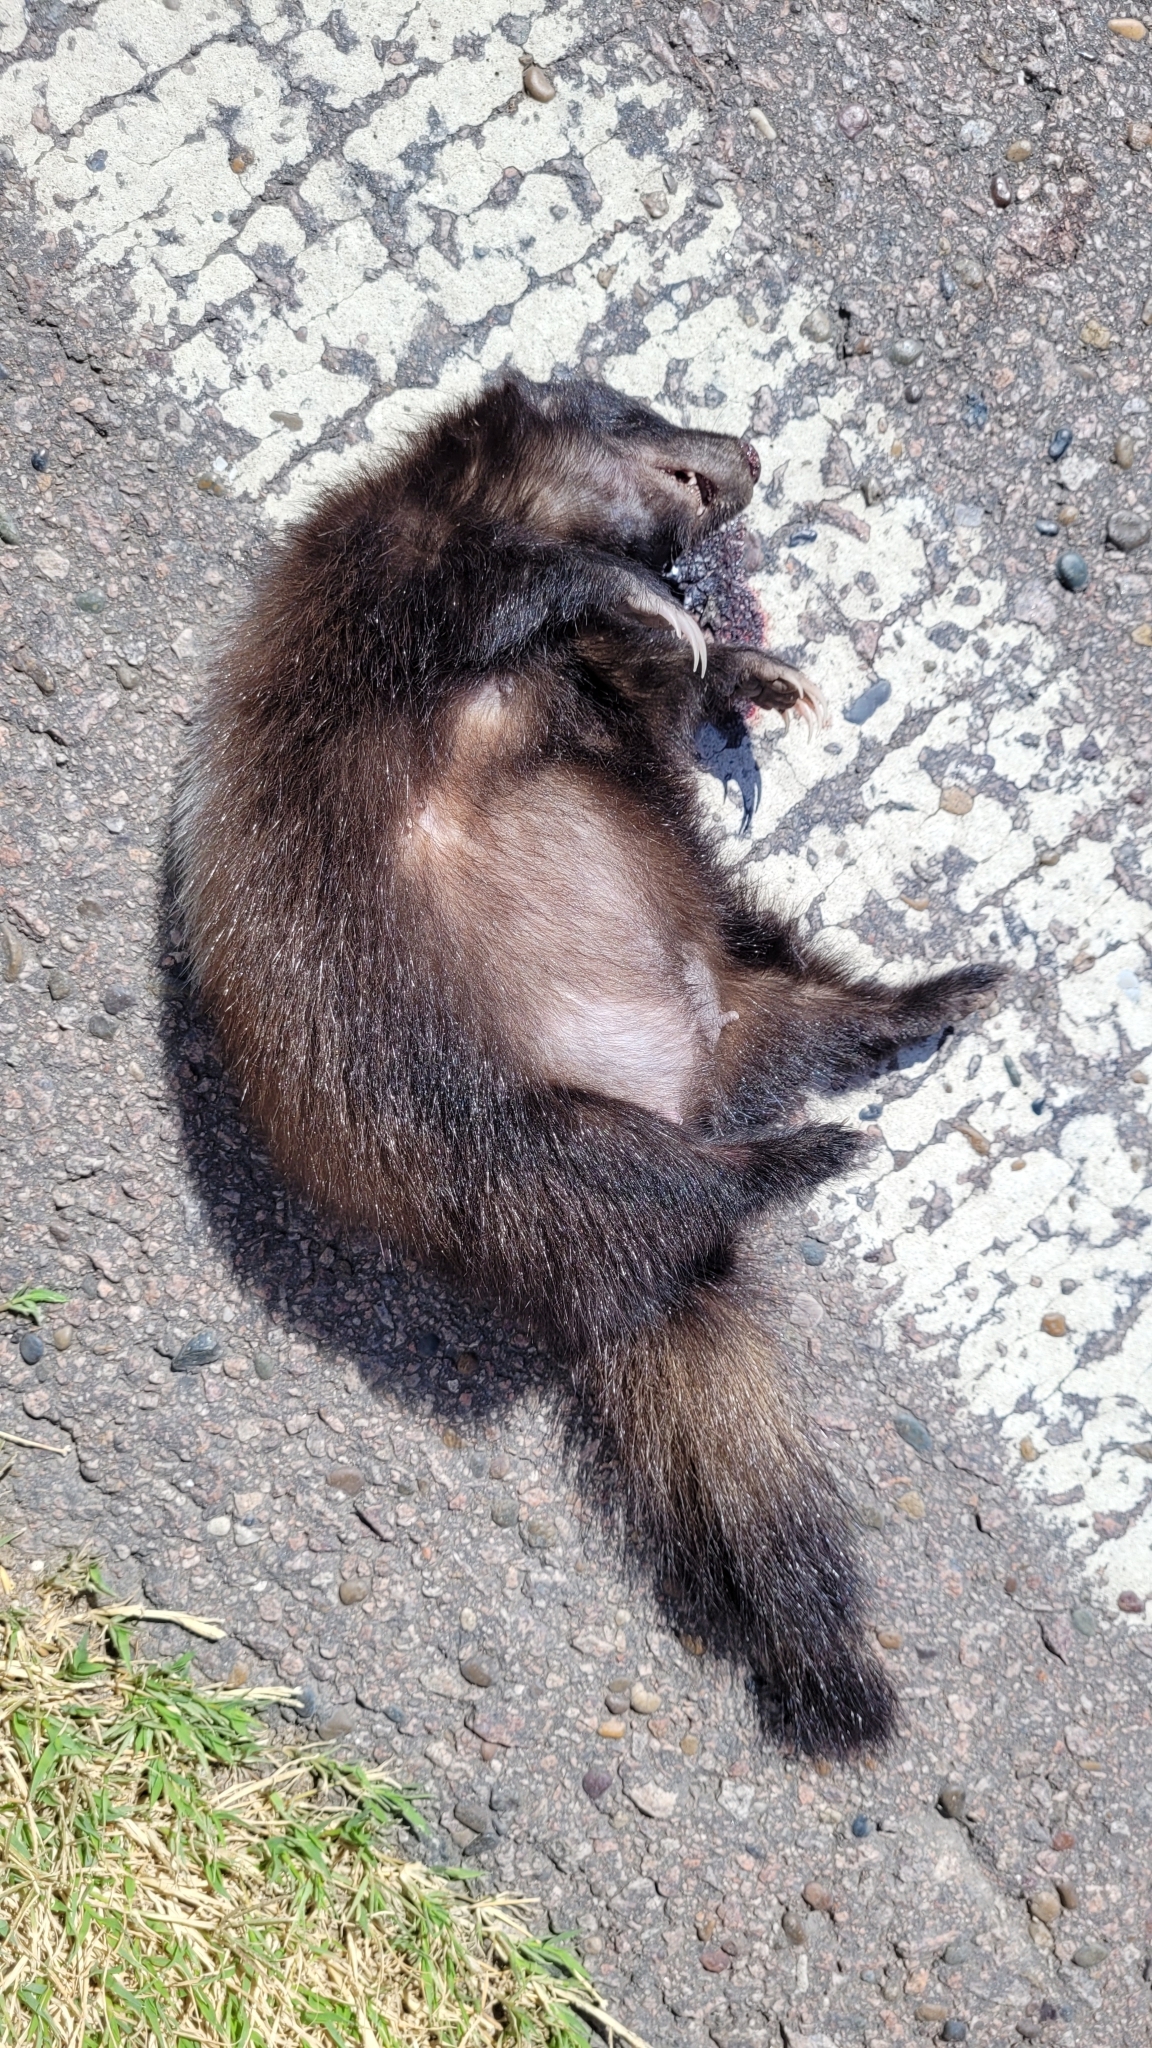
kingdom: Animalia
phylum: Chordata
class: Mammalia
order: Carnivora
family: Mephitidae
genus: Conepatus
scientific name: Conepatus chinga
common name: Molina's hog-nosed skunk
